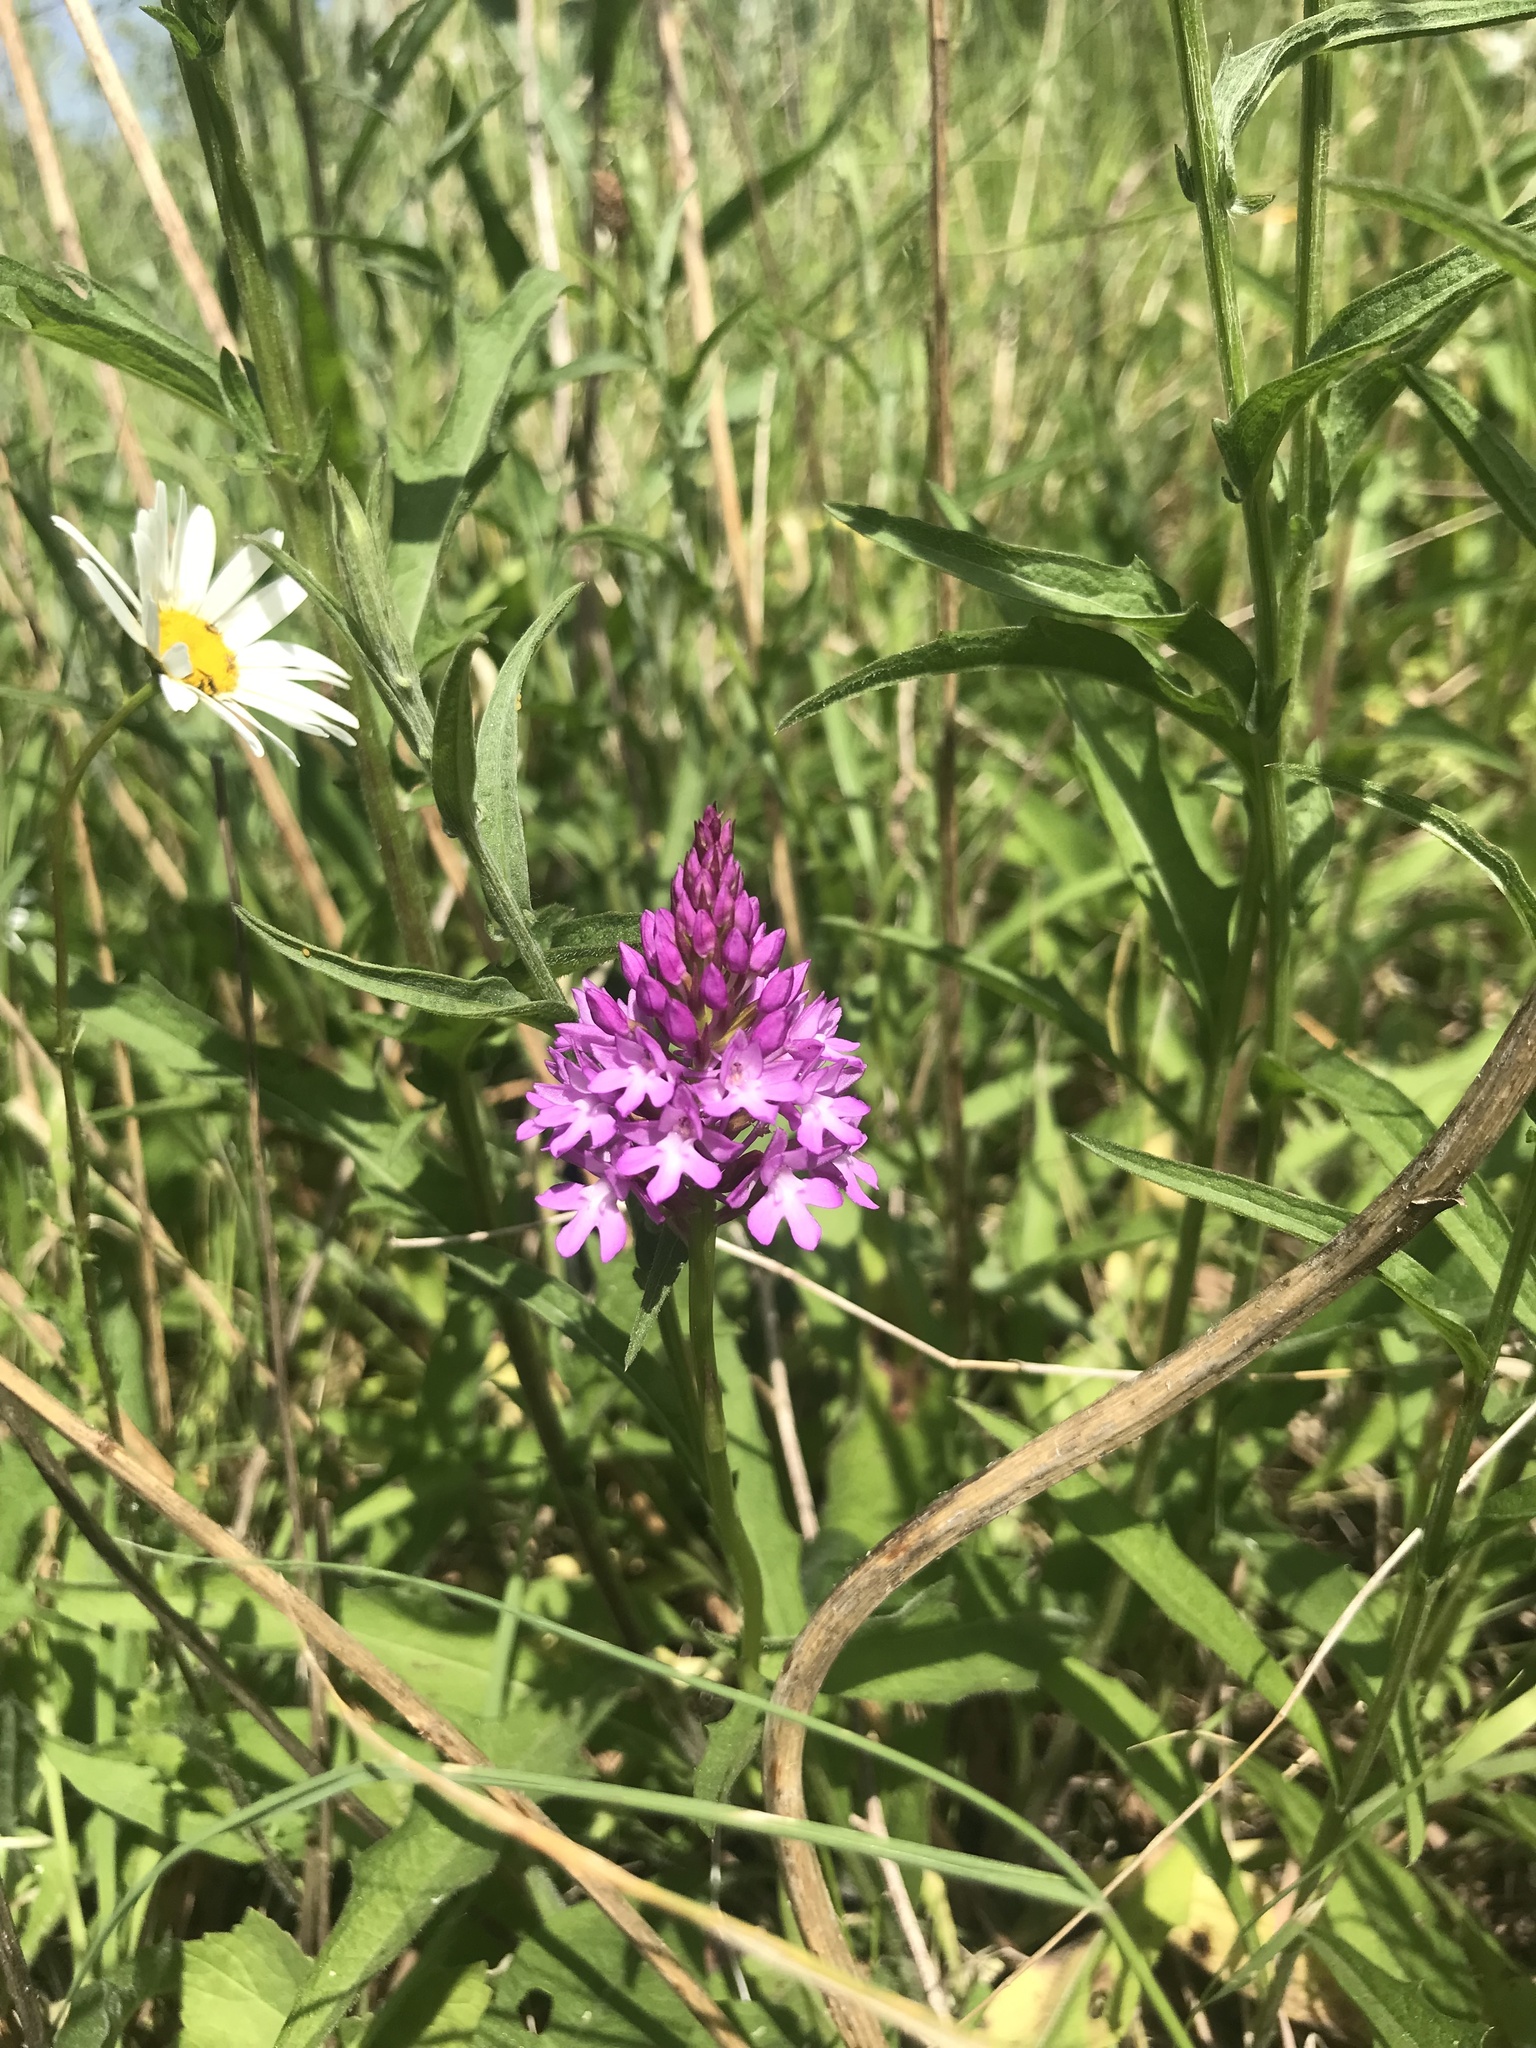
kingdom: Plantae
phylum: Tracheophyta
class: Liliopsida
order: Asparagales
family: Orchidaceae
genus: Anacamptis
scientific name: Anacamptis pyramidalis
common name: Pyramidal orchid
